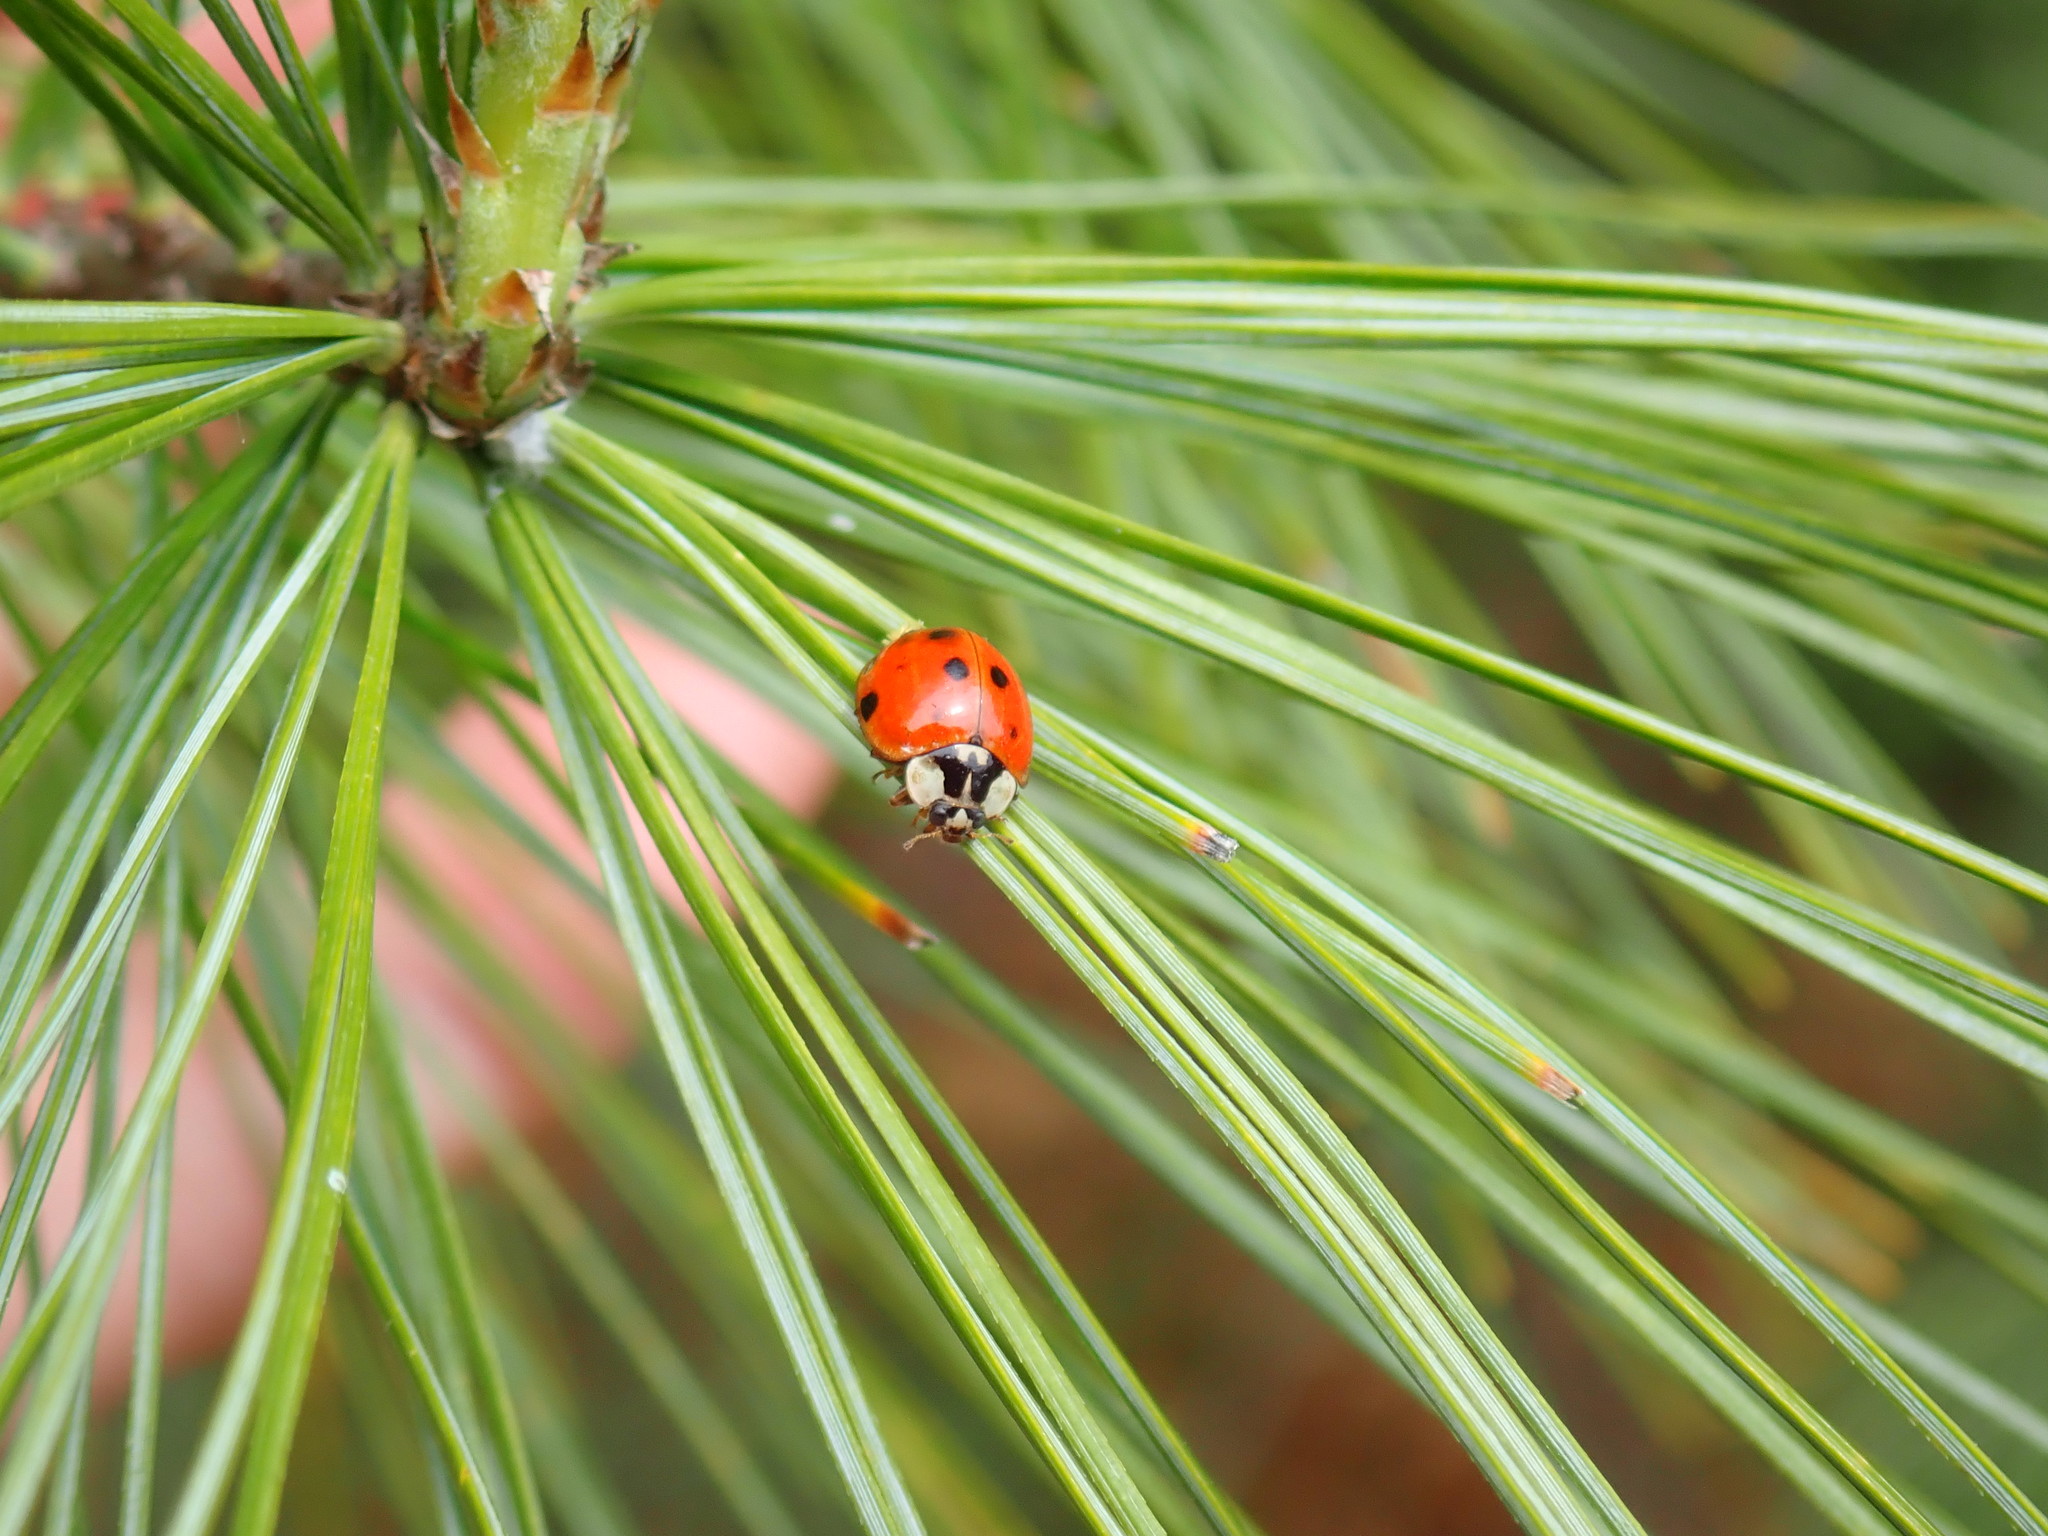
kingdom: Animalia
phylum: Arthropoda
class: Insecta
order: Coleoptera
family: Coccinellidae
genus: Harmonia
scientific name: Harmonia axyridis
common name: Harlequin ladybird
